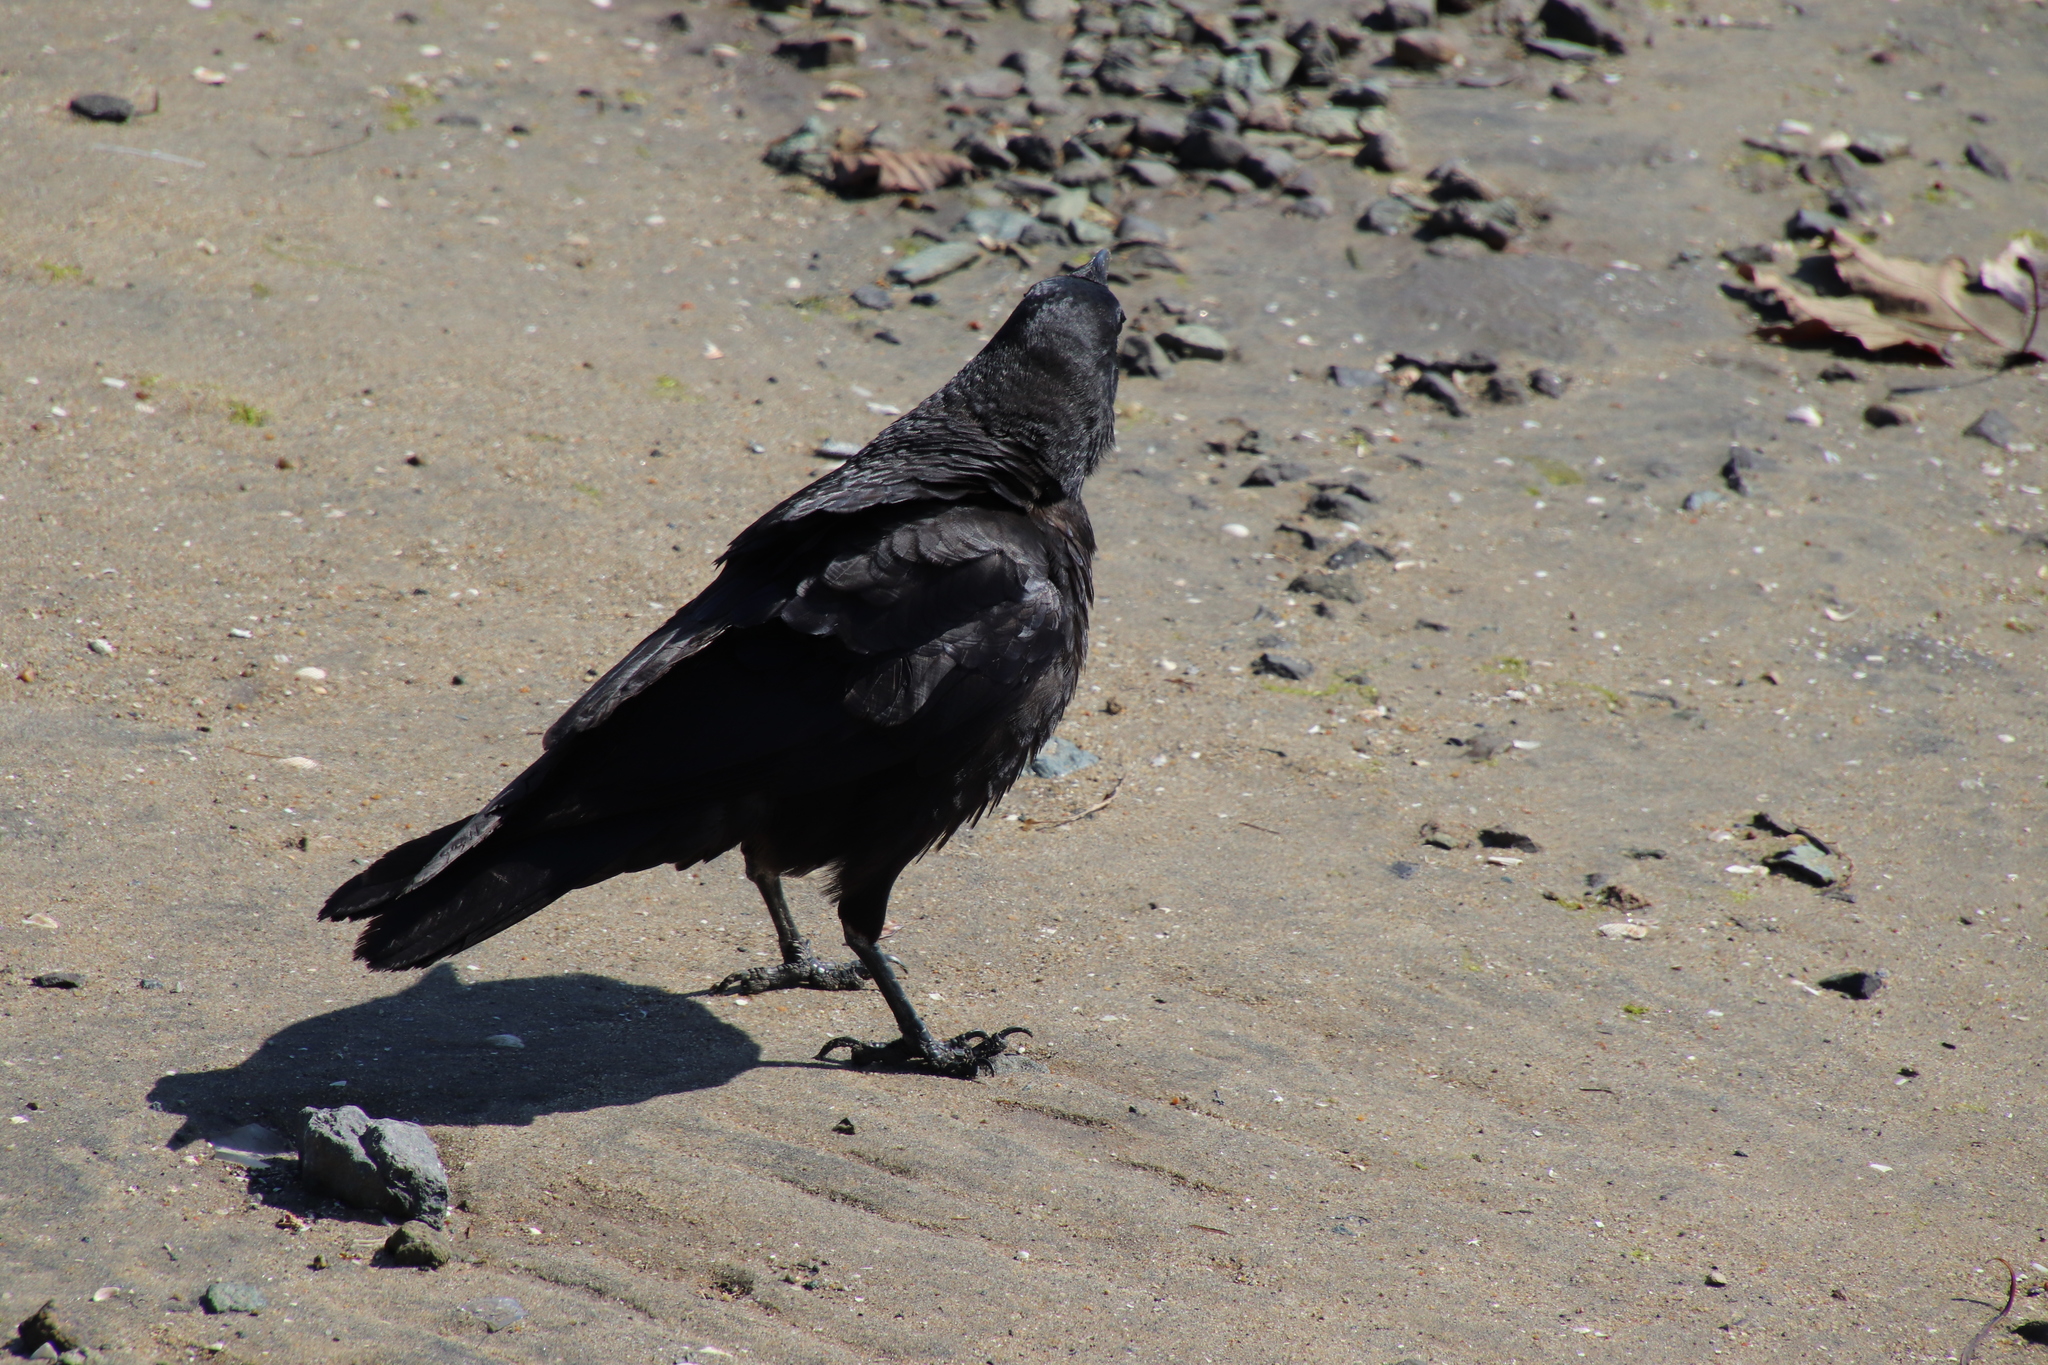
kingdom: Animalia
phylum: Chordata
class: Aves
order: Passeriformes
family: Corvidae
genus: Corvus
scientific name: Corvus brachyrhynchos
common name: American crow
